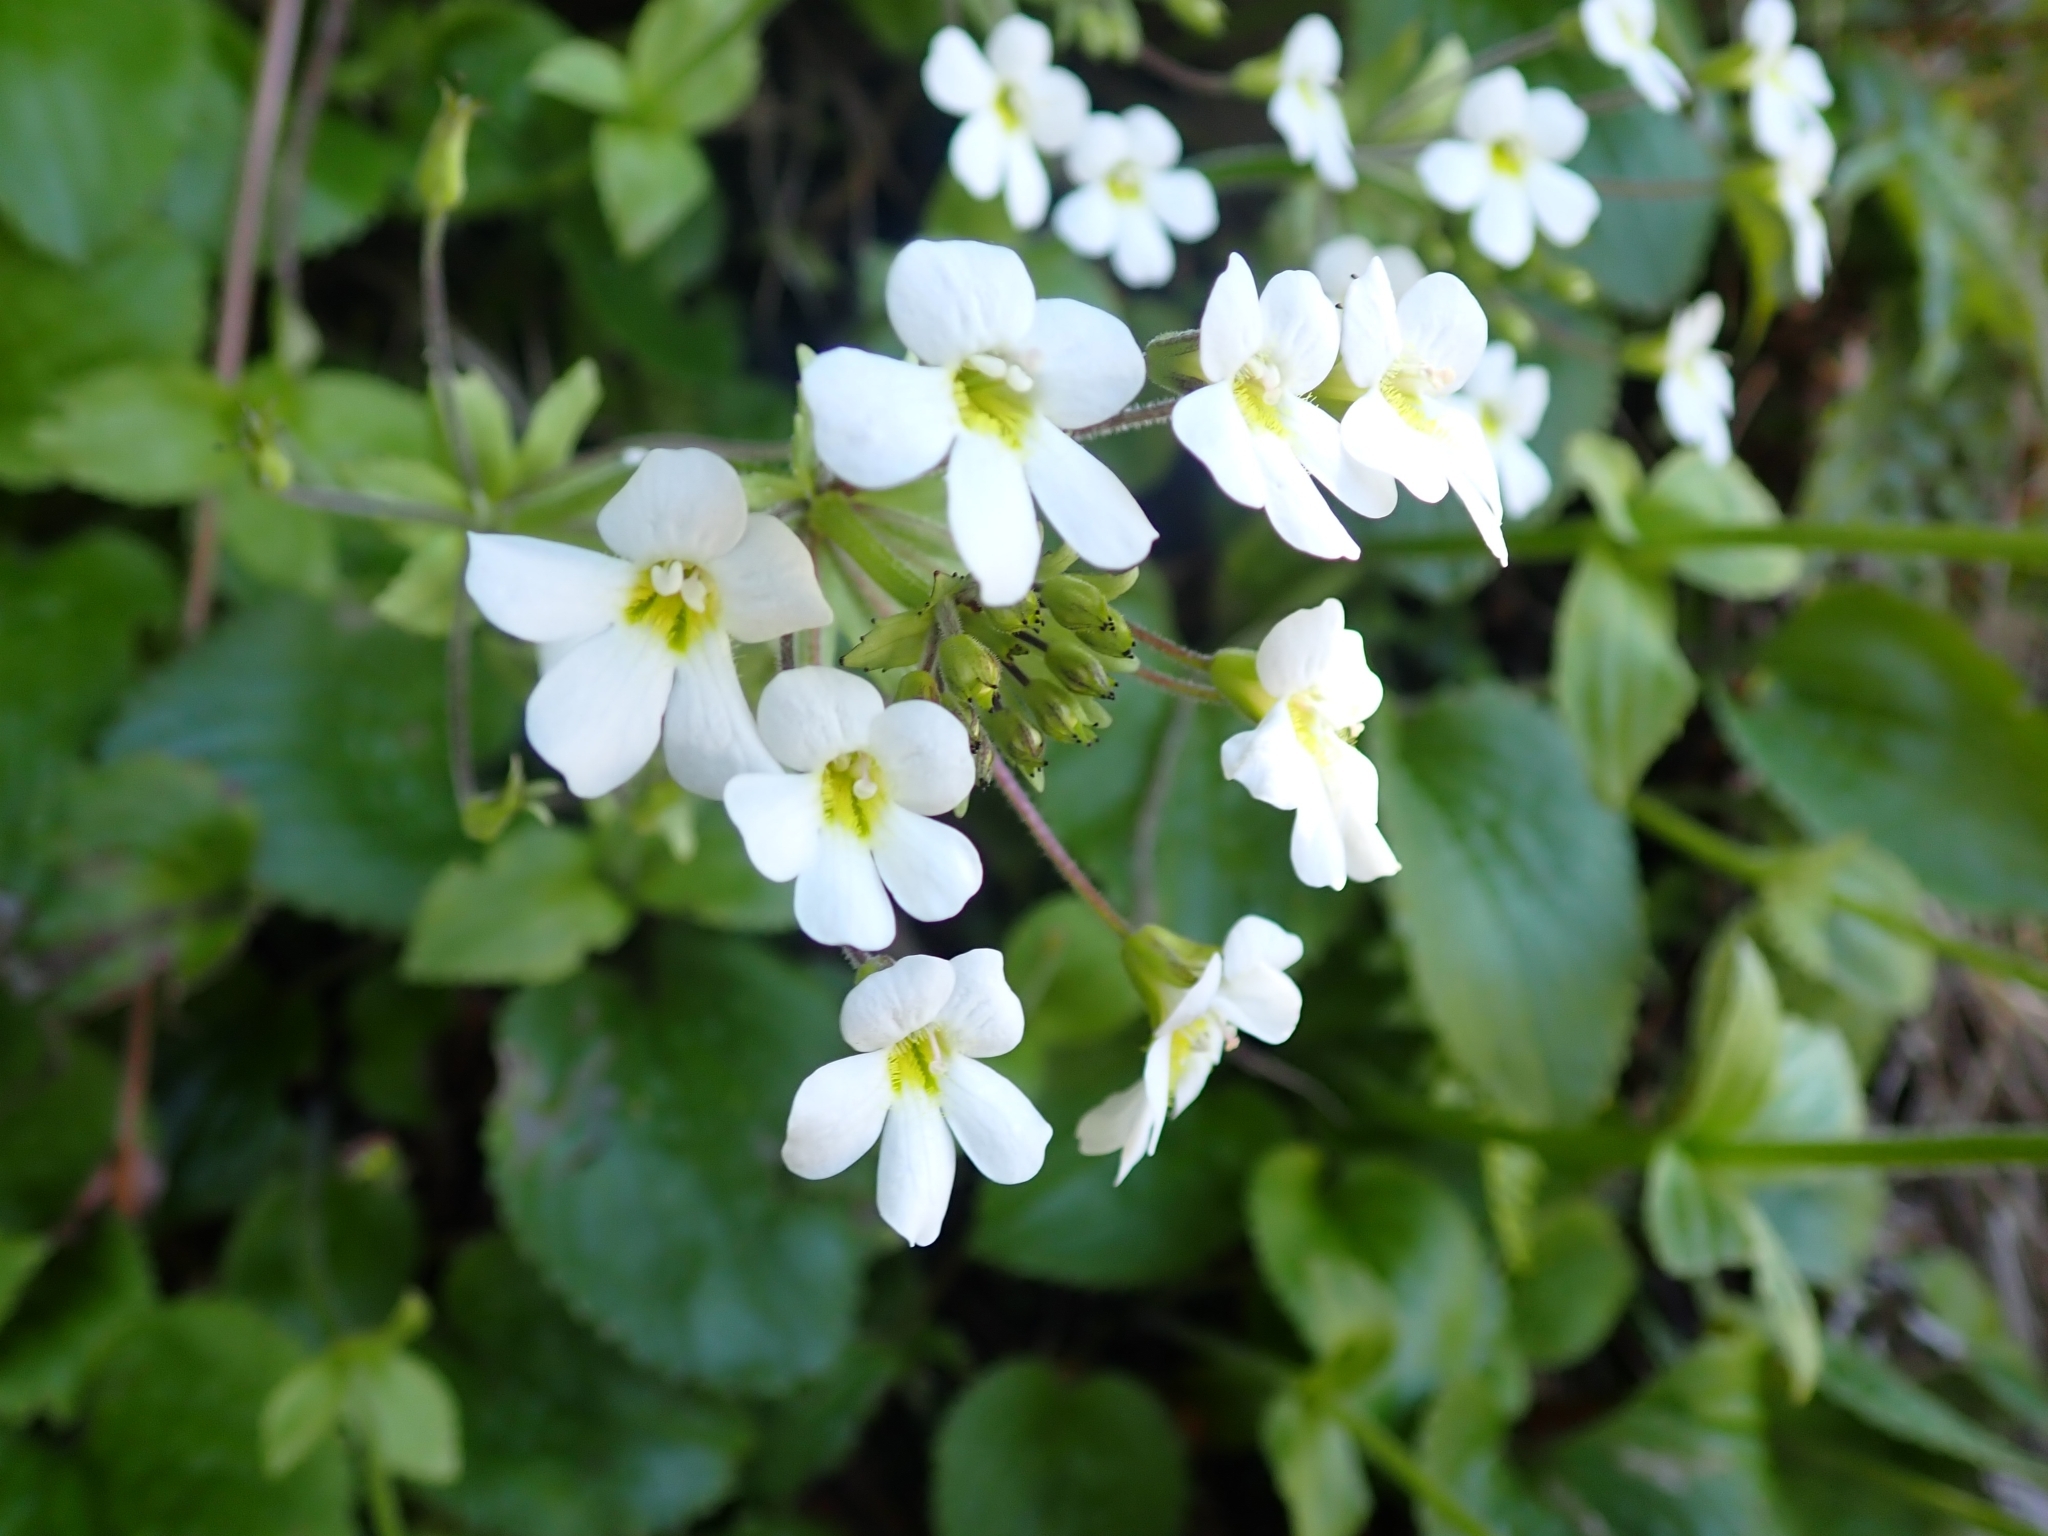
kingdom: Plantae
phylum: Tracheophyta
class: Magnoliopsida
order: Lamiales
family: Plantaginaceae
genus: Ourisia
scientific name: Ourisia macrophylla
